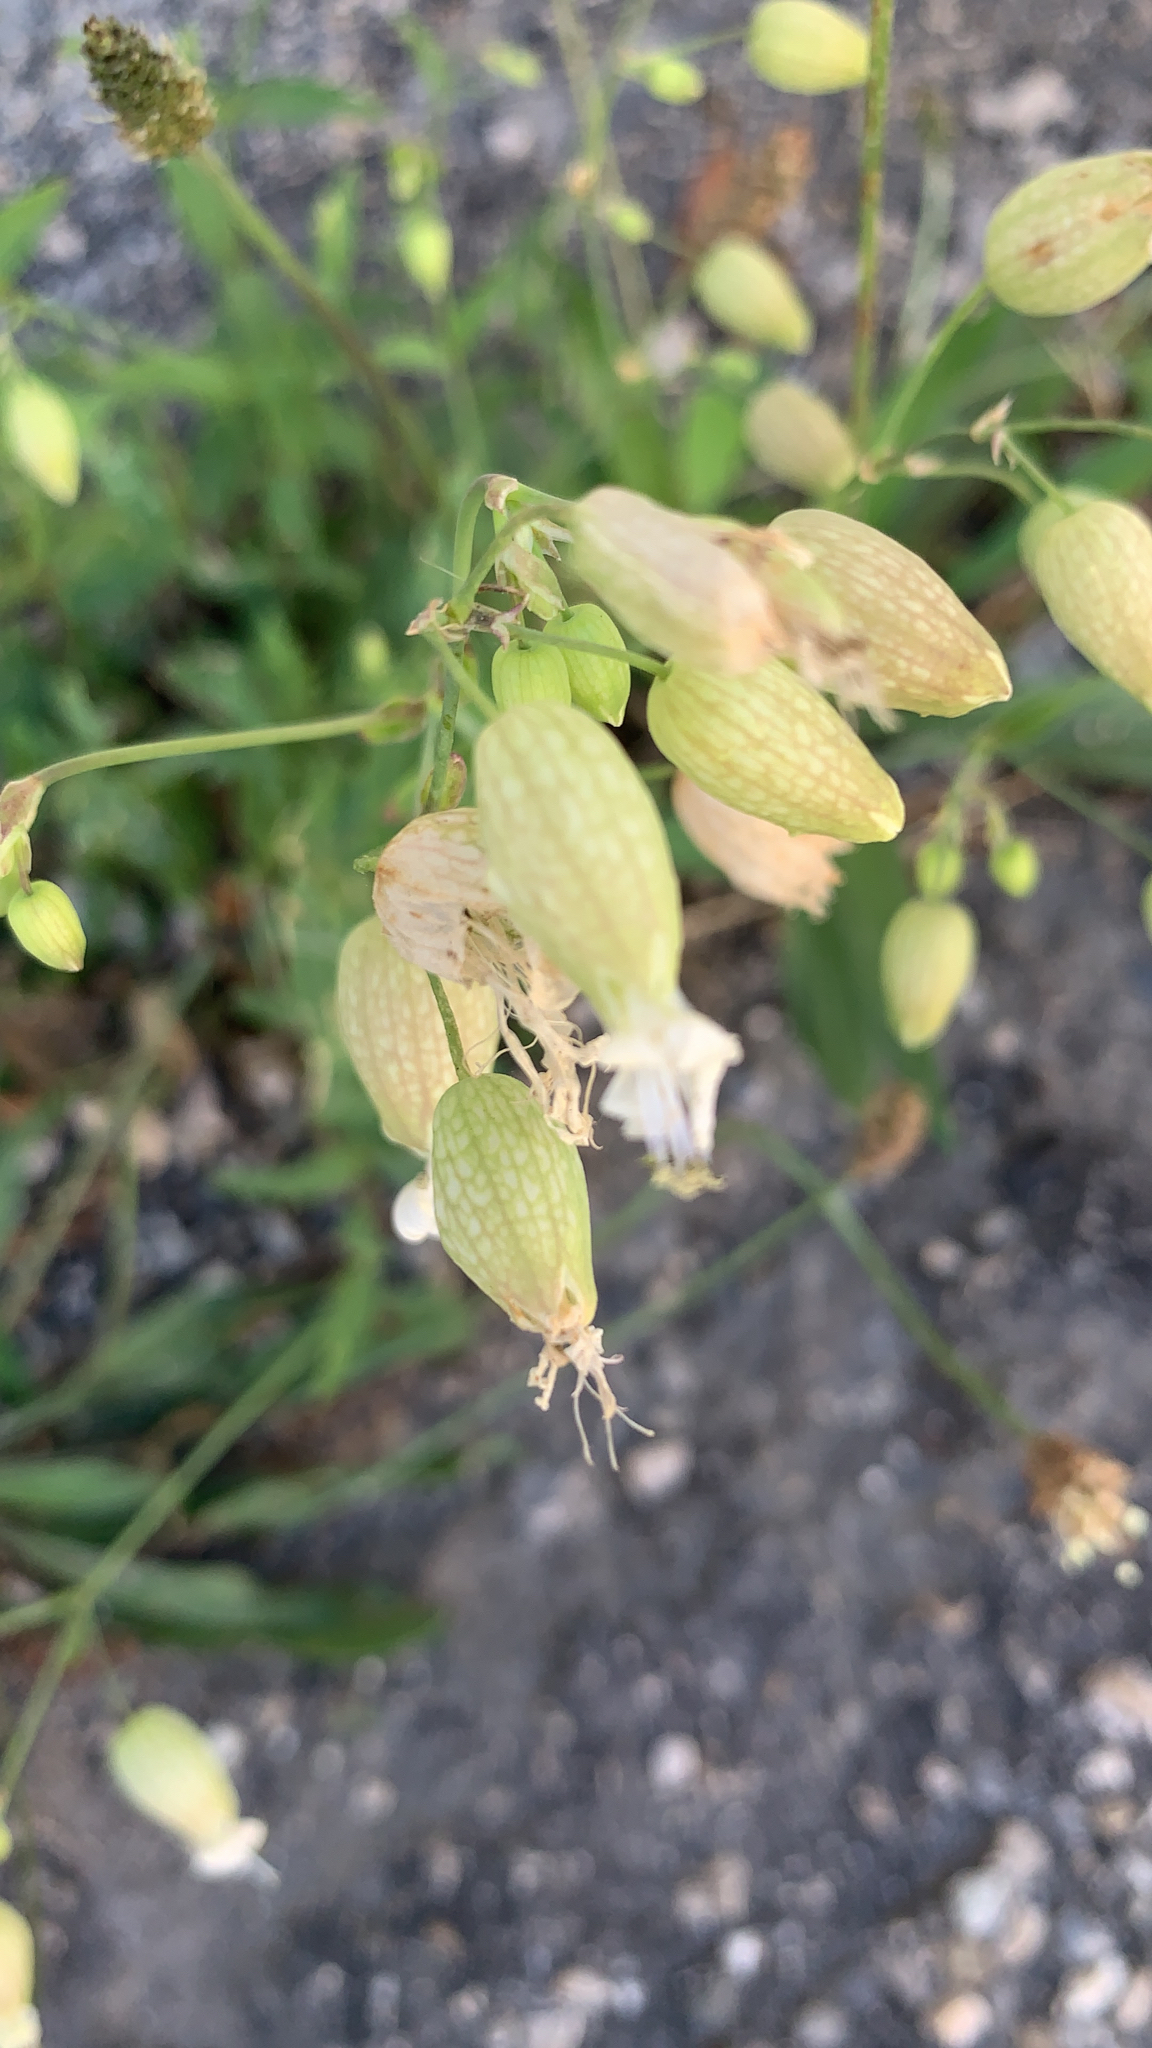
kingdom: Plantae
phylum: Tracheophyta
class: Magnoliopsida
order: Caryophyllales
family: Caryophyllaceae
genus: Silene
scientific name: Silene vulgaris
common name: Bladder campion
